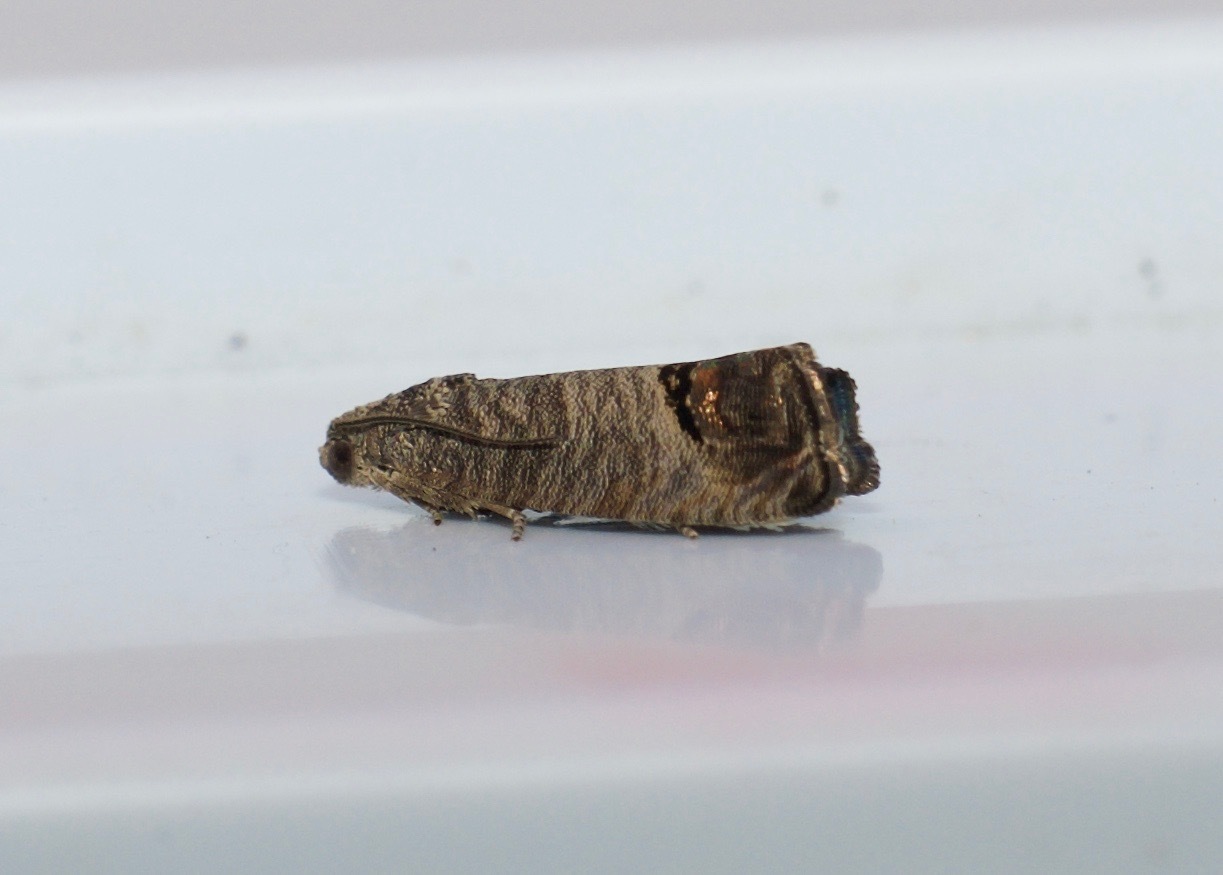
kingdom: Animalia
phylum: Arthropoda
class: Insecta
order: Lepidoptera
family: Tortricidae
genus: Cydia
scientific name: Cydia pomonella
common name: Codling moth
